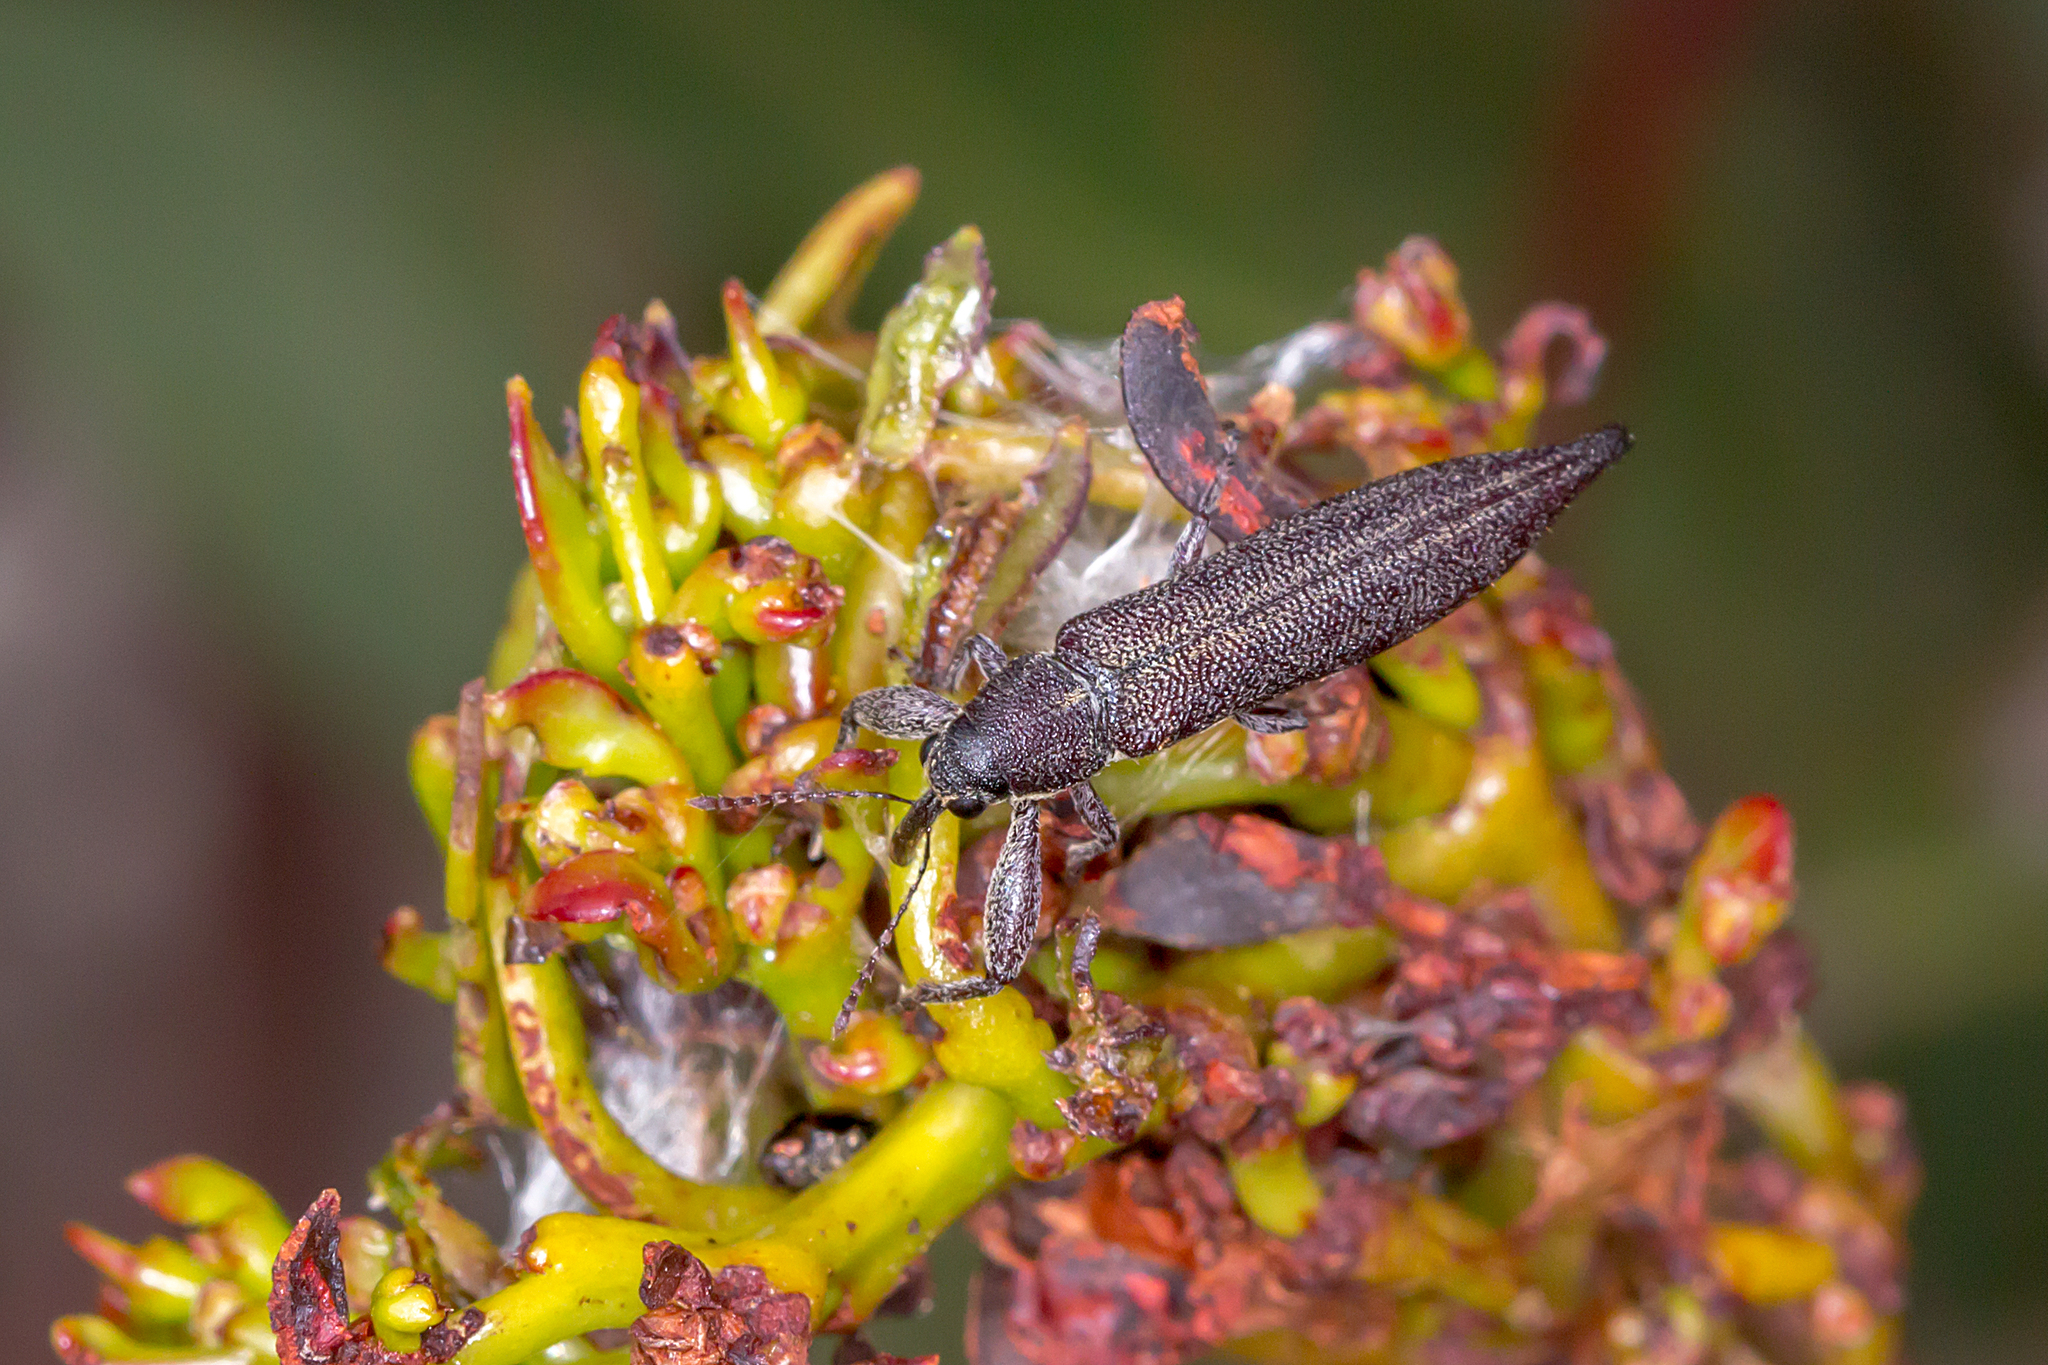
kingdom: Animalia
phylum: Arthropoda
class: Insecta
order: Coleoptera
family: Belidae
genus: Rhinotia
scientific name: Rhinotia
